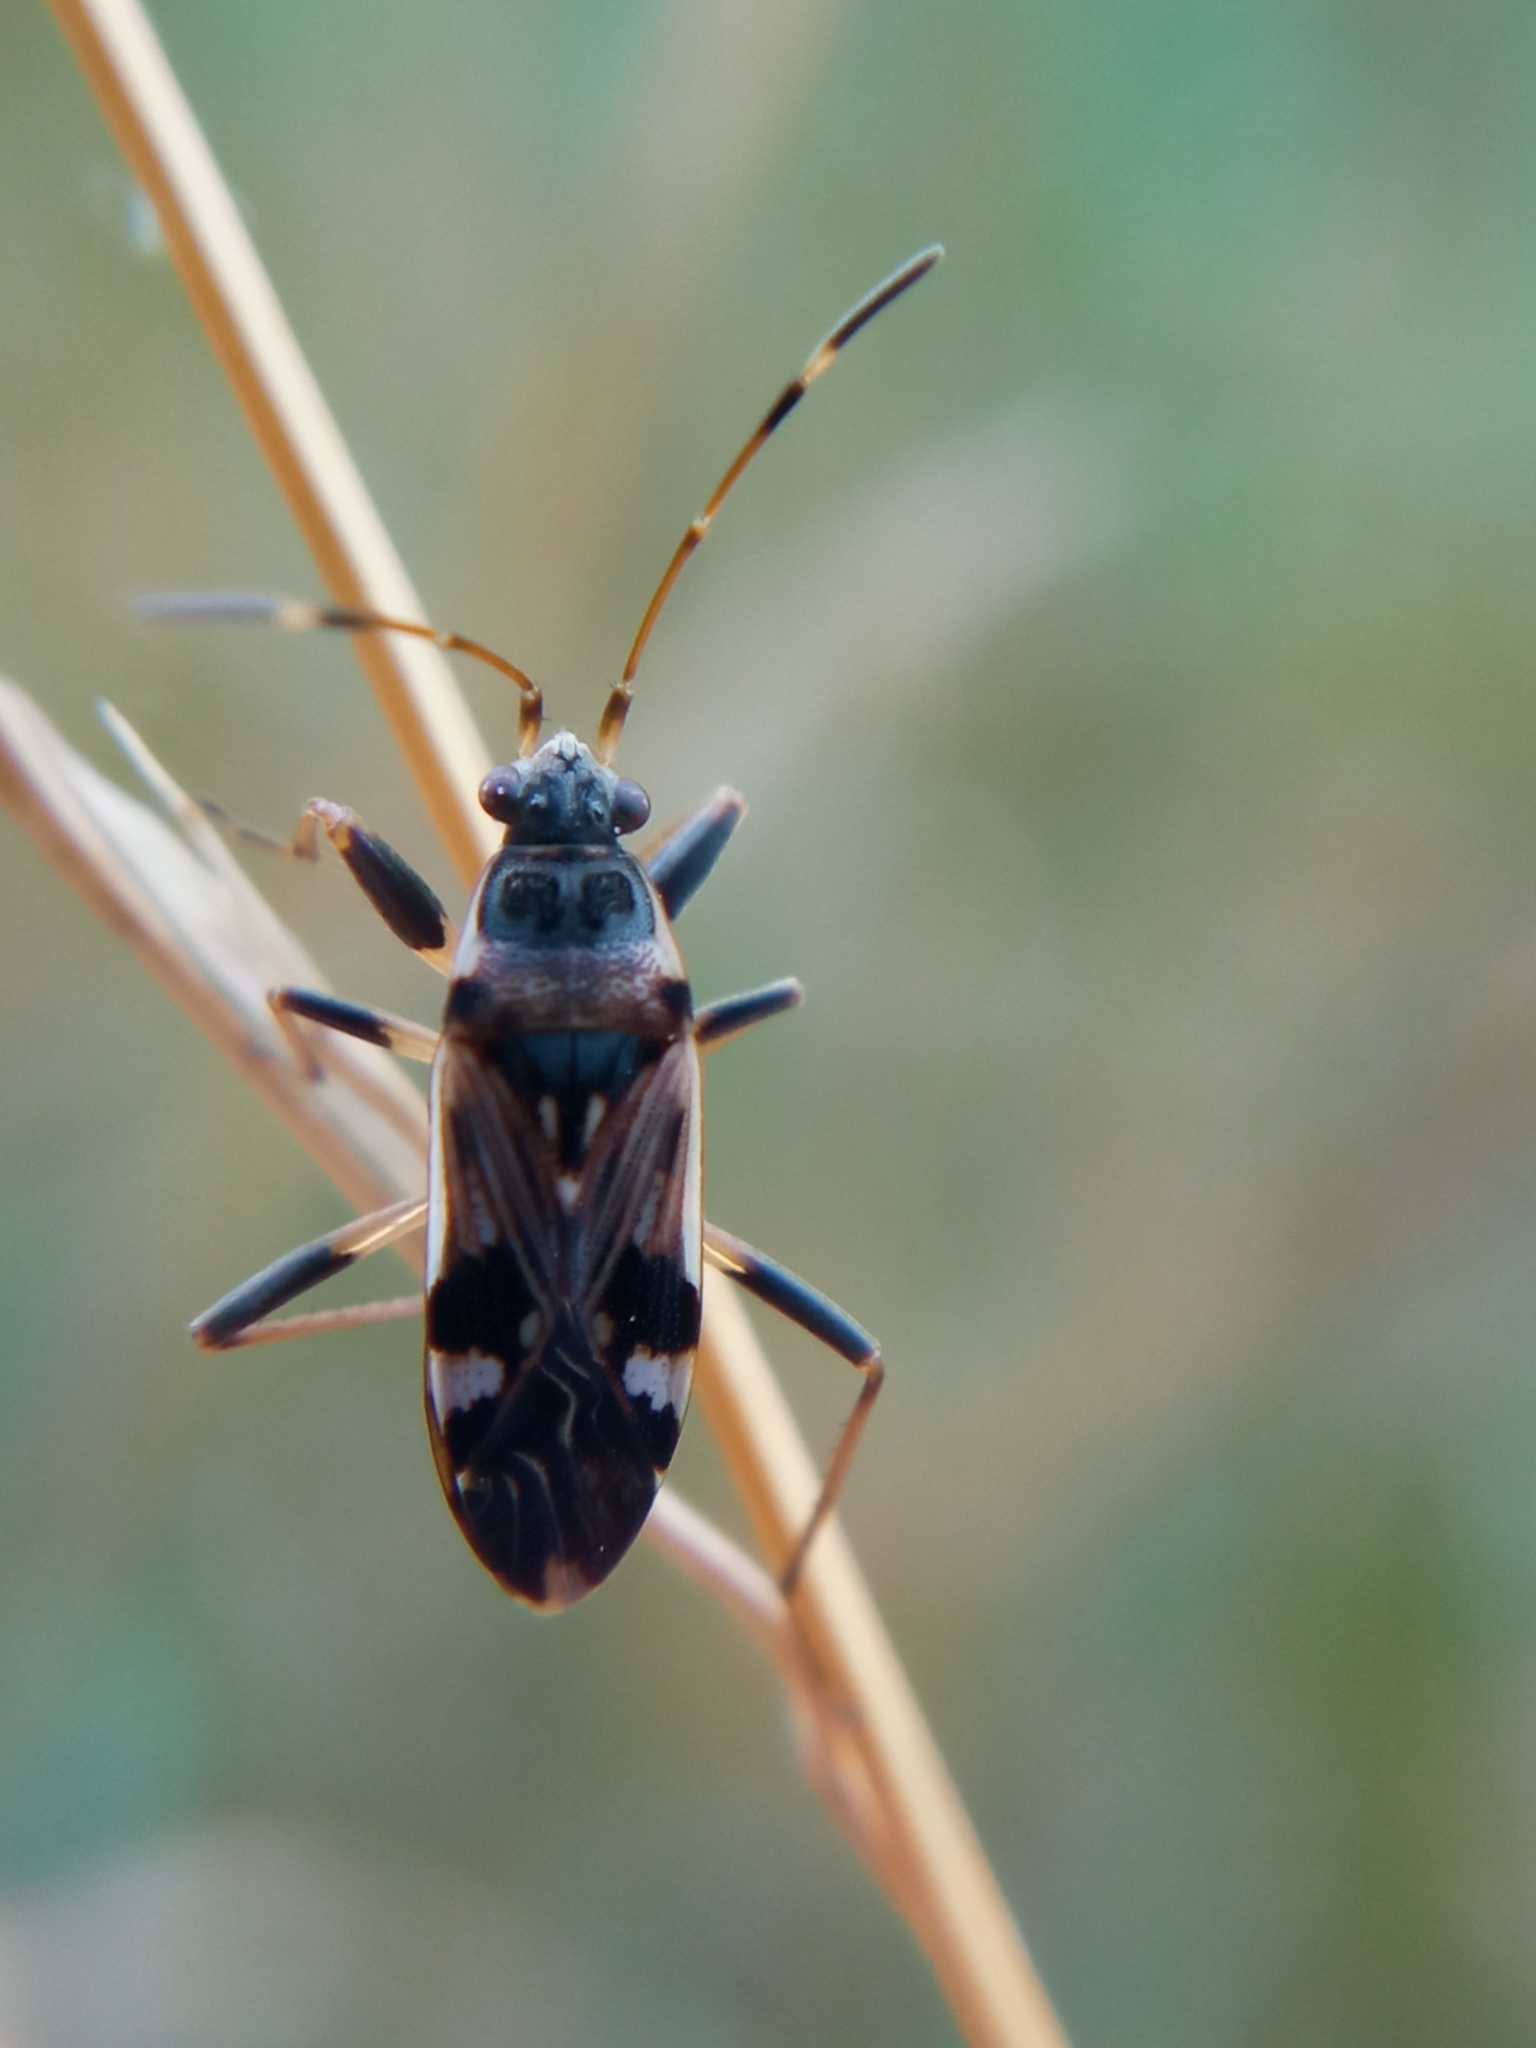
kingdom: Animalia
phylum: Arthropoda
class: Insecta
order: Hemiptera
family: Rhyparochromidae
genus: Beosus
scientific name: Beosus maritimus
